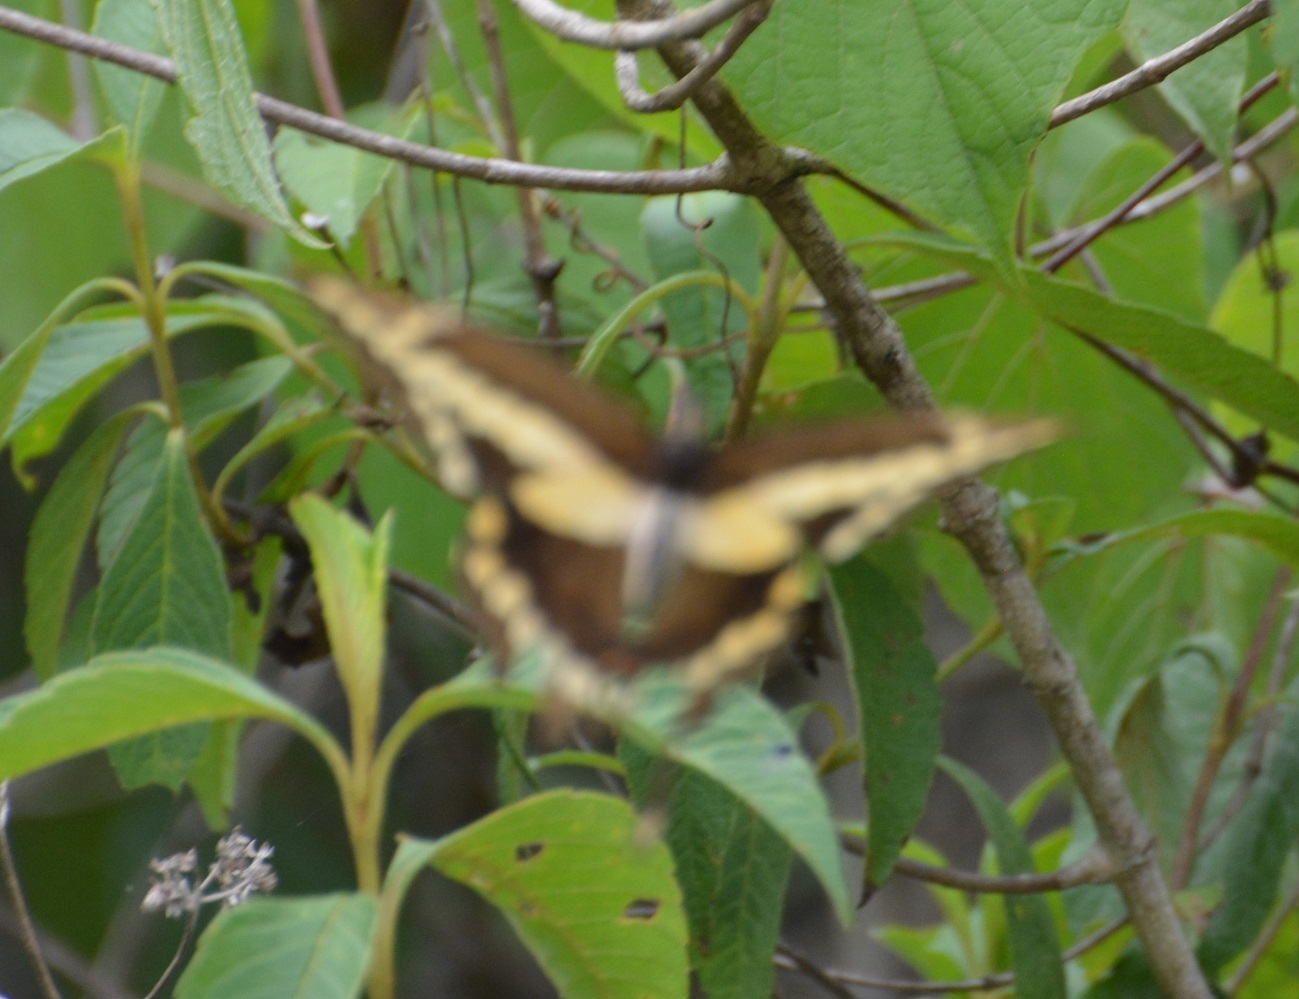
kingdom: Animalia
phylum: Arthropoda
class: Insecta
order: Lepidoptera
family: Papilionidae
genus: Papilio
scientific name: Papilio rumiko
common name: Western giant swallowtail
